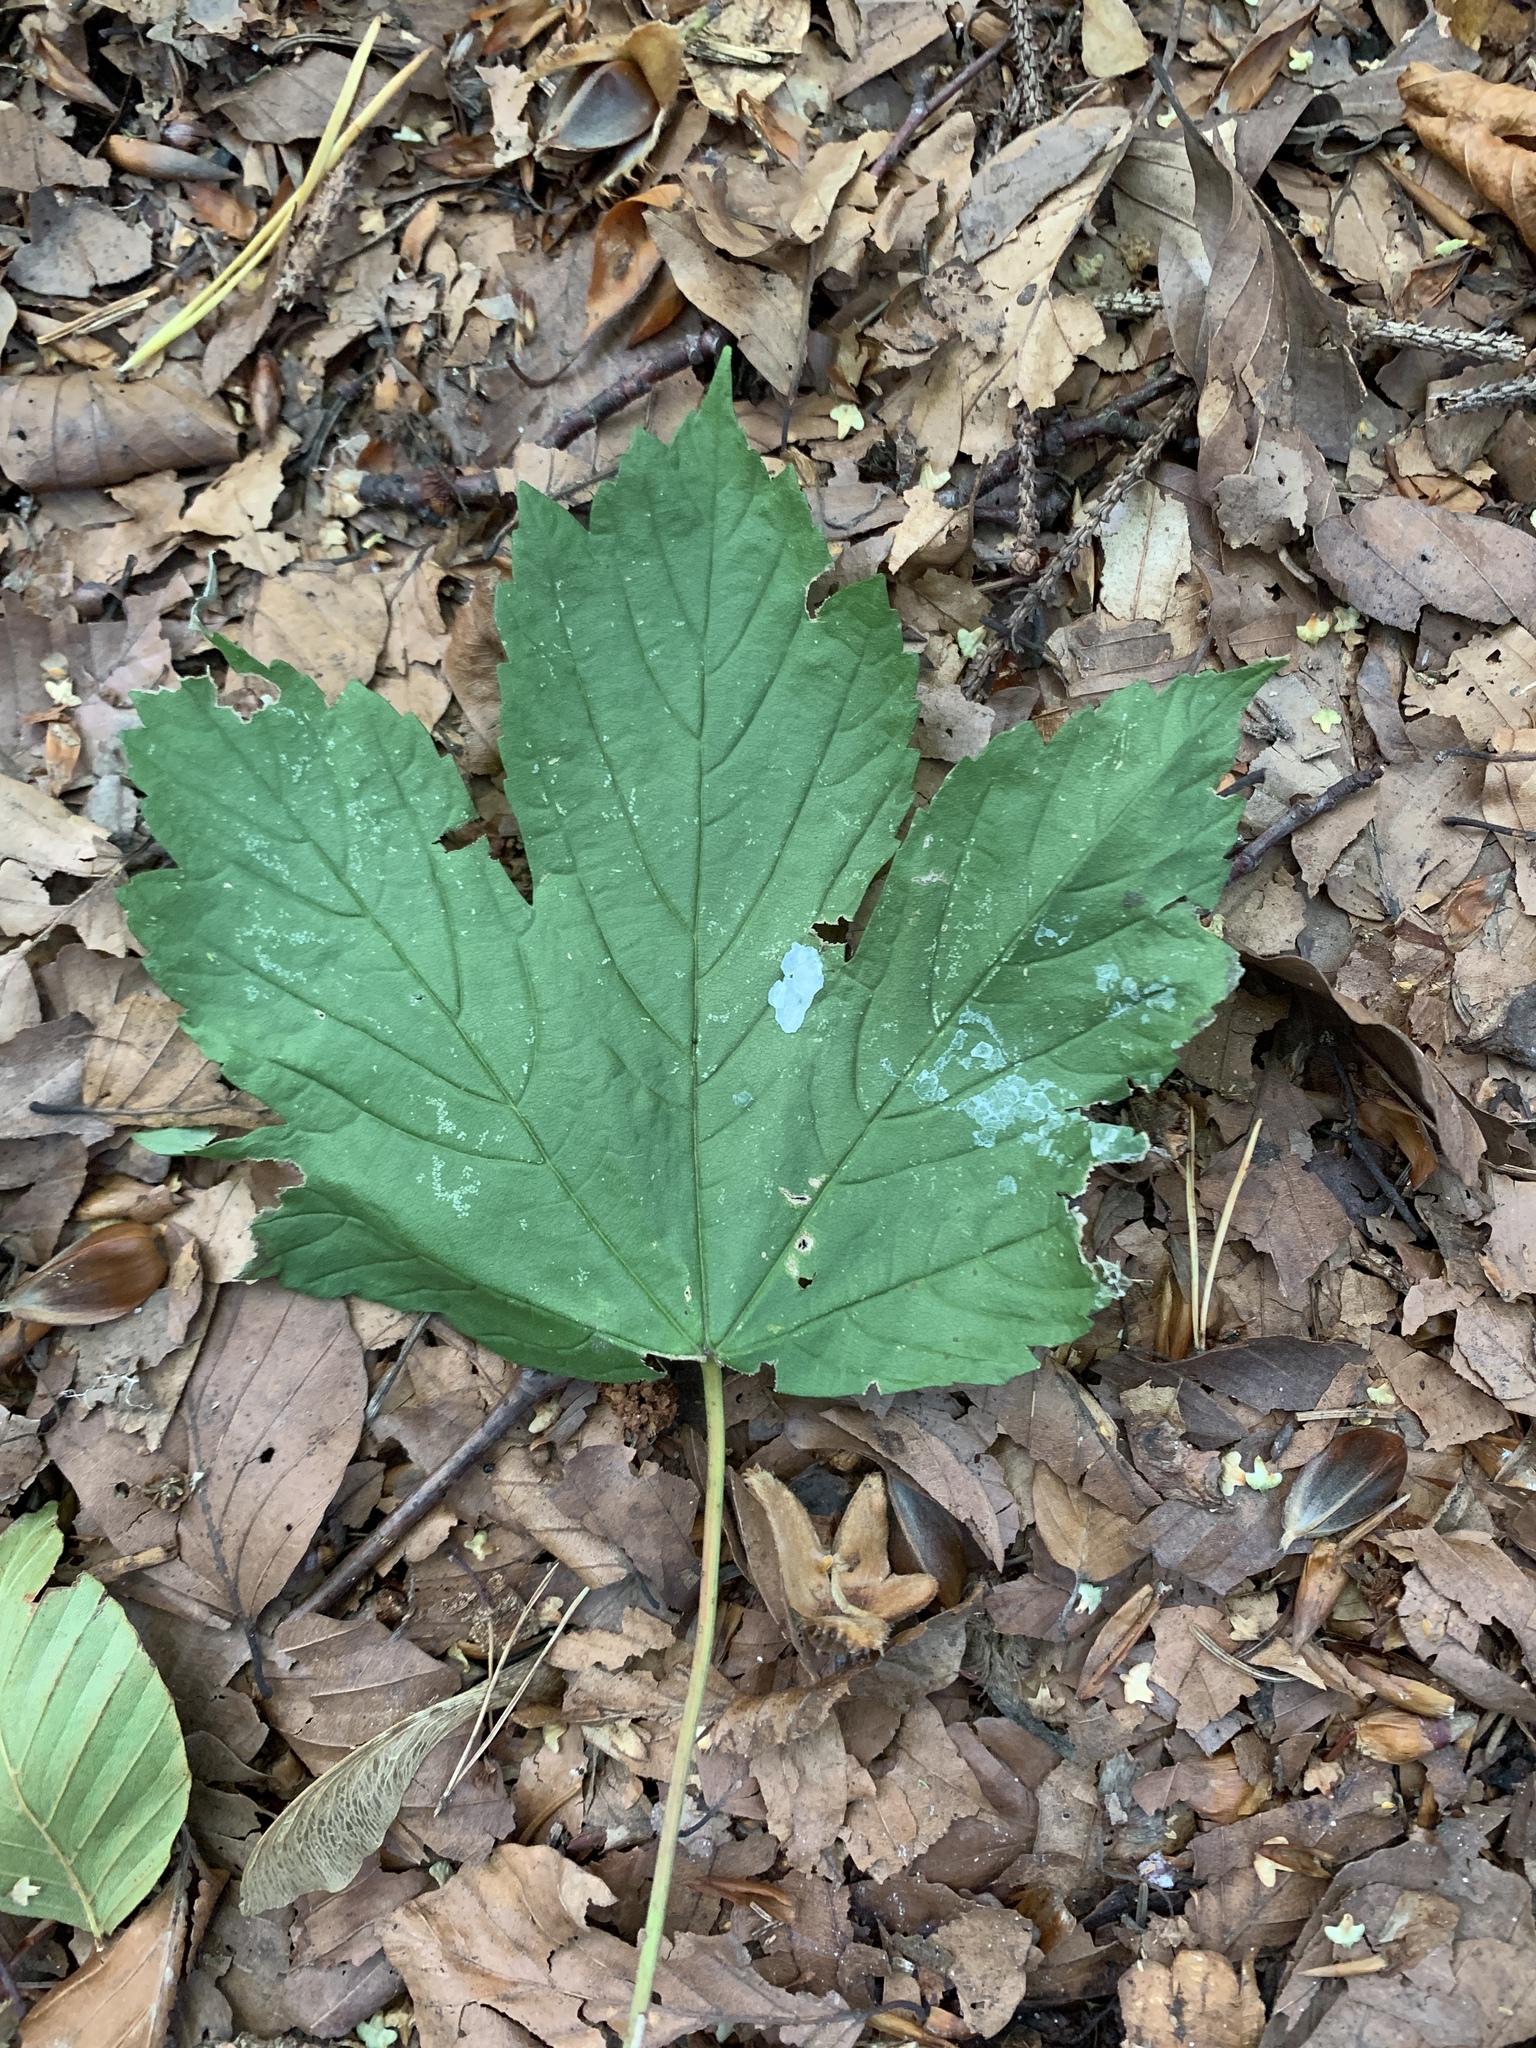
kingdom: Plantae
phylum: Tracheophyta
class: Magnoliopsida
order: Sapindales
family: Sapindaceae
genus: Acer
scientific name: Acer pseudoplatanus
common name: Sycamore
